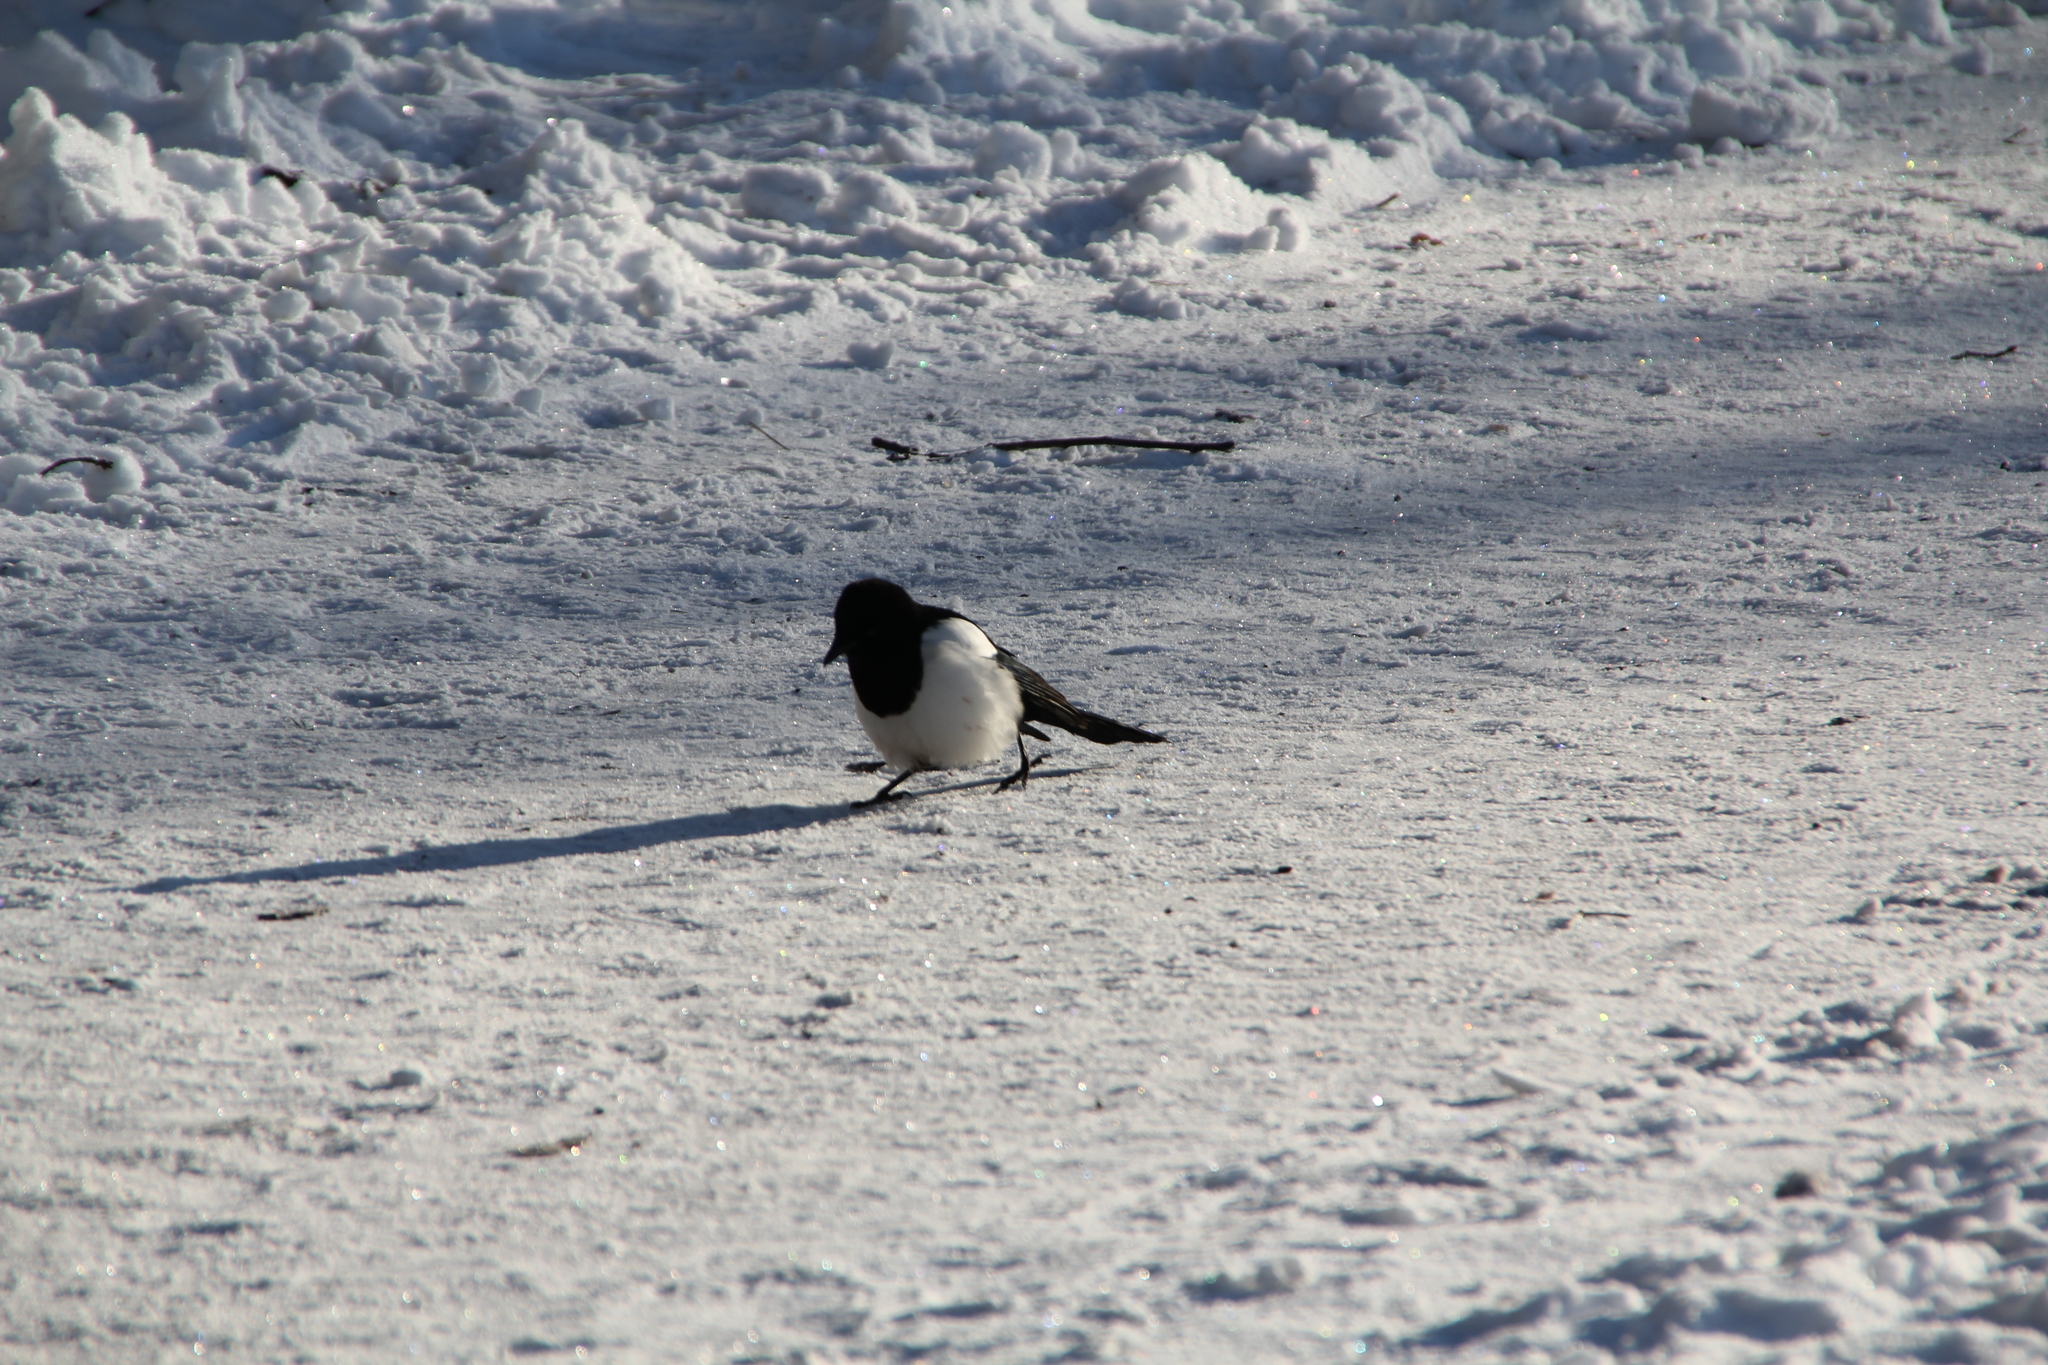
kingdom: Animalia
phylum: Chordata
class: Aves
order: Passeriformes
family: Corvidae
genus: Pica
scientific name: Pica pica
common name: Eurasian magpie
